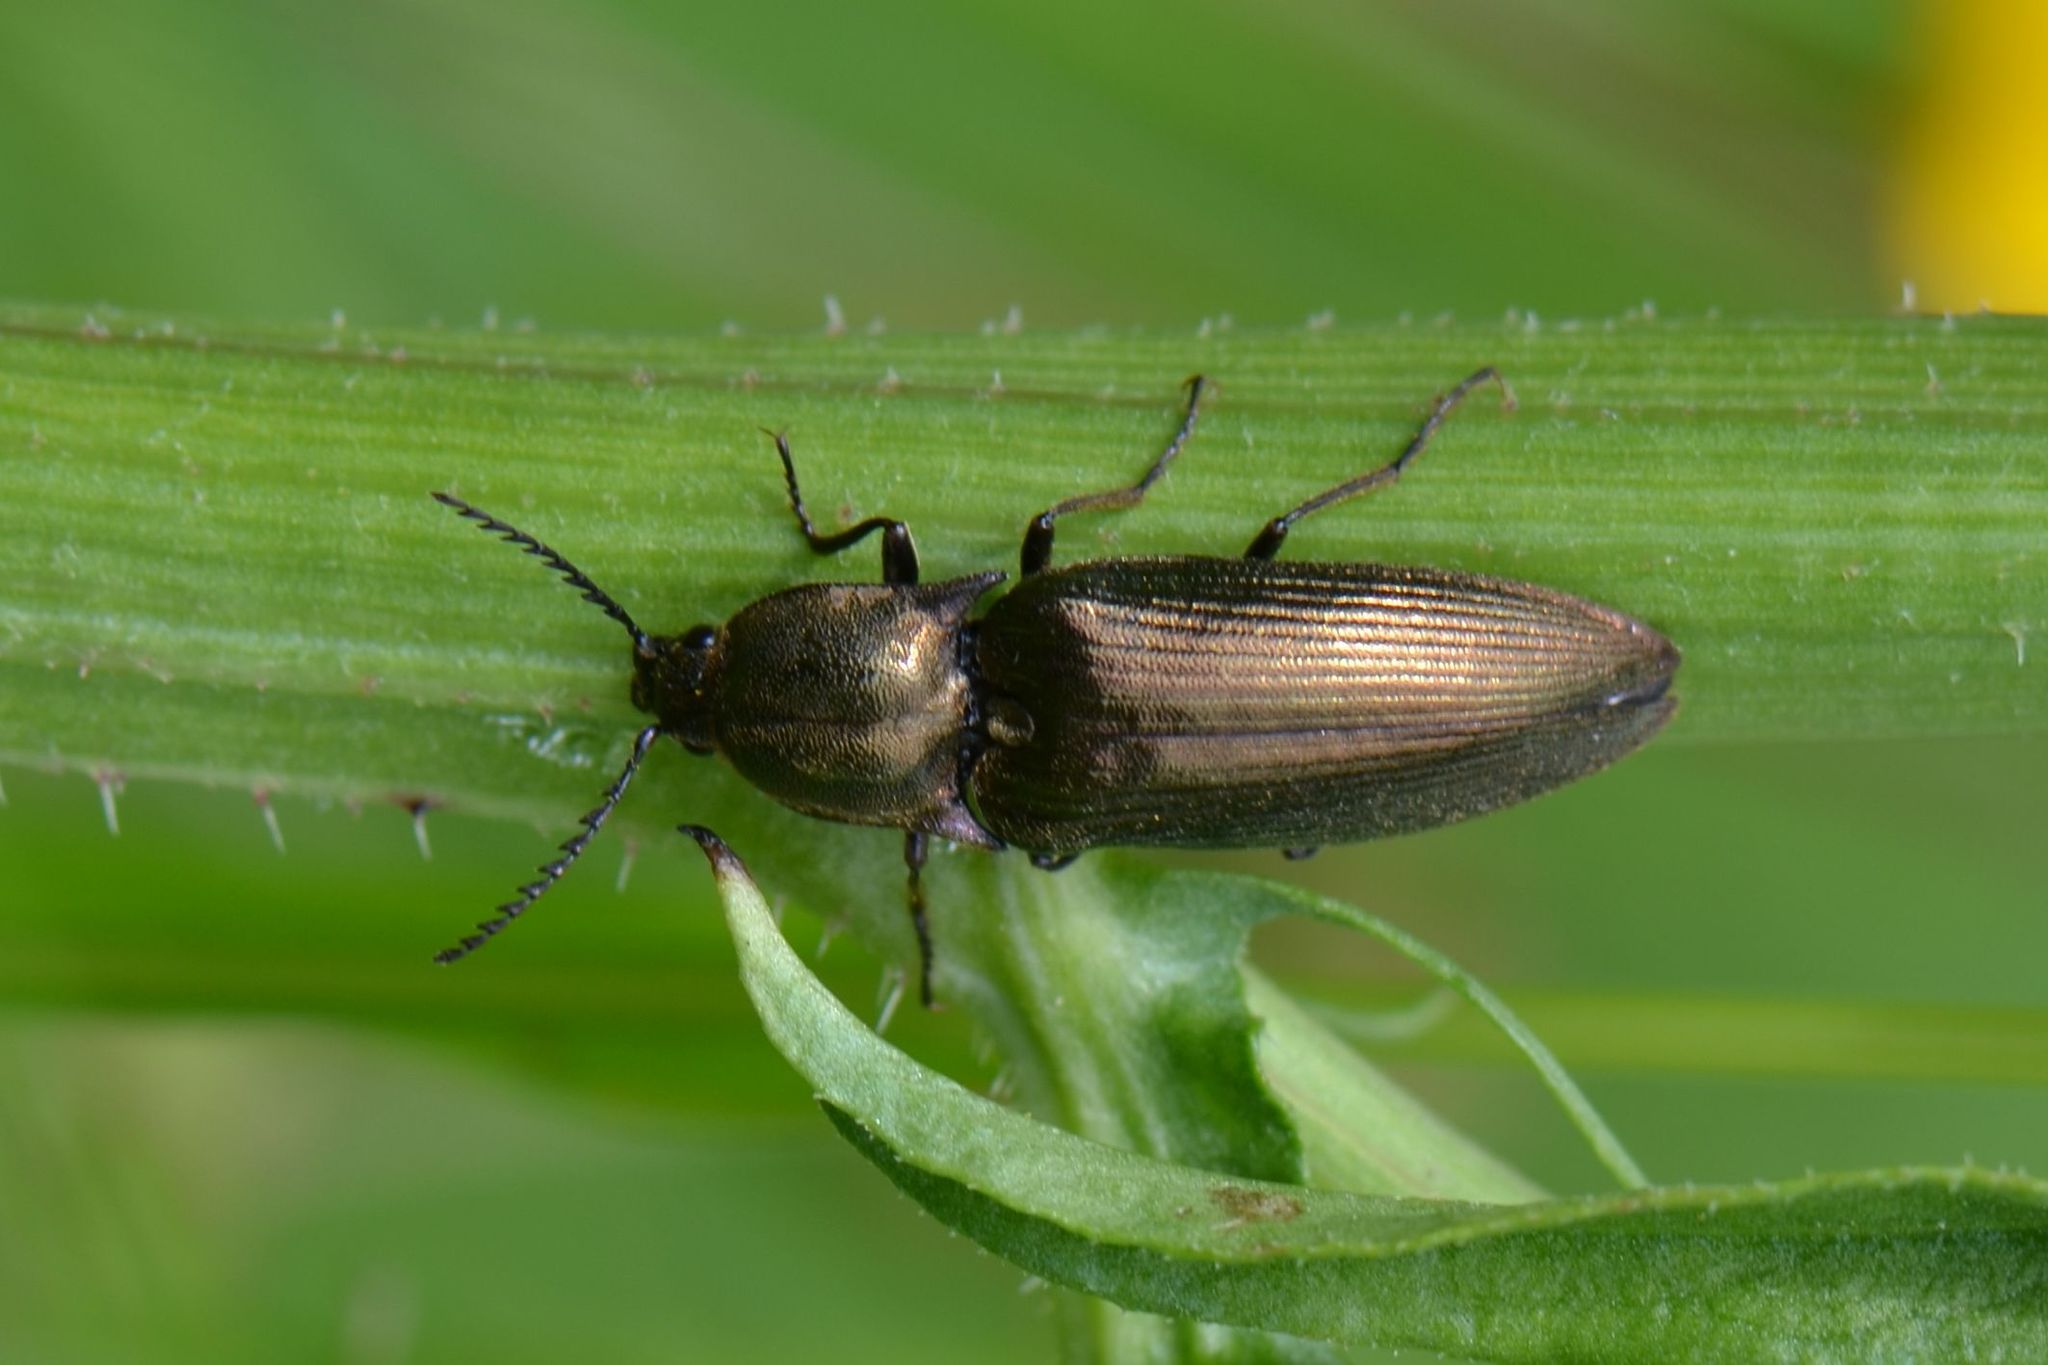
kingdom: Animalia
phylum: Arthropoda
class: Insecta
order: Coleoptera
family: Elateridae
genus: Ctenicera
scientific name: Ctenicera pectinicornis
